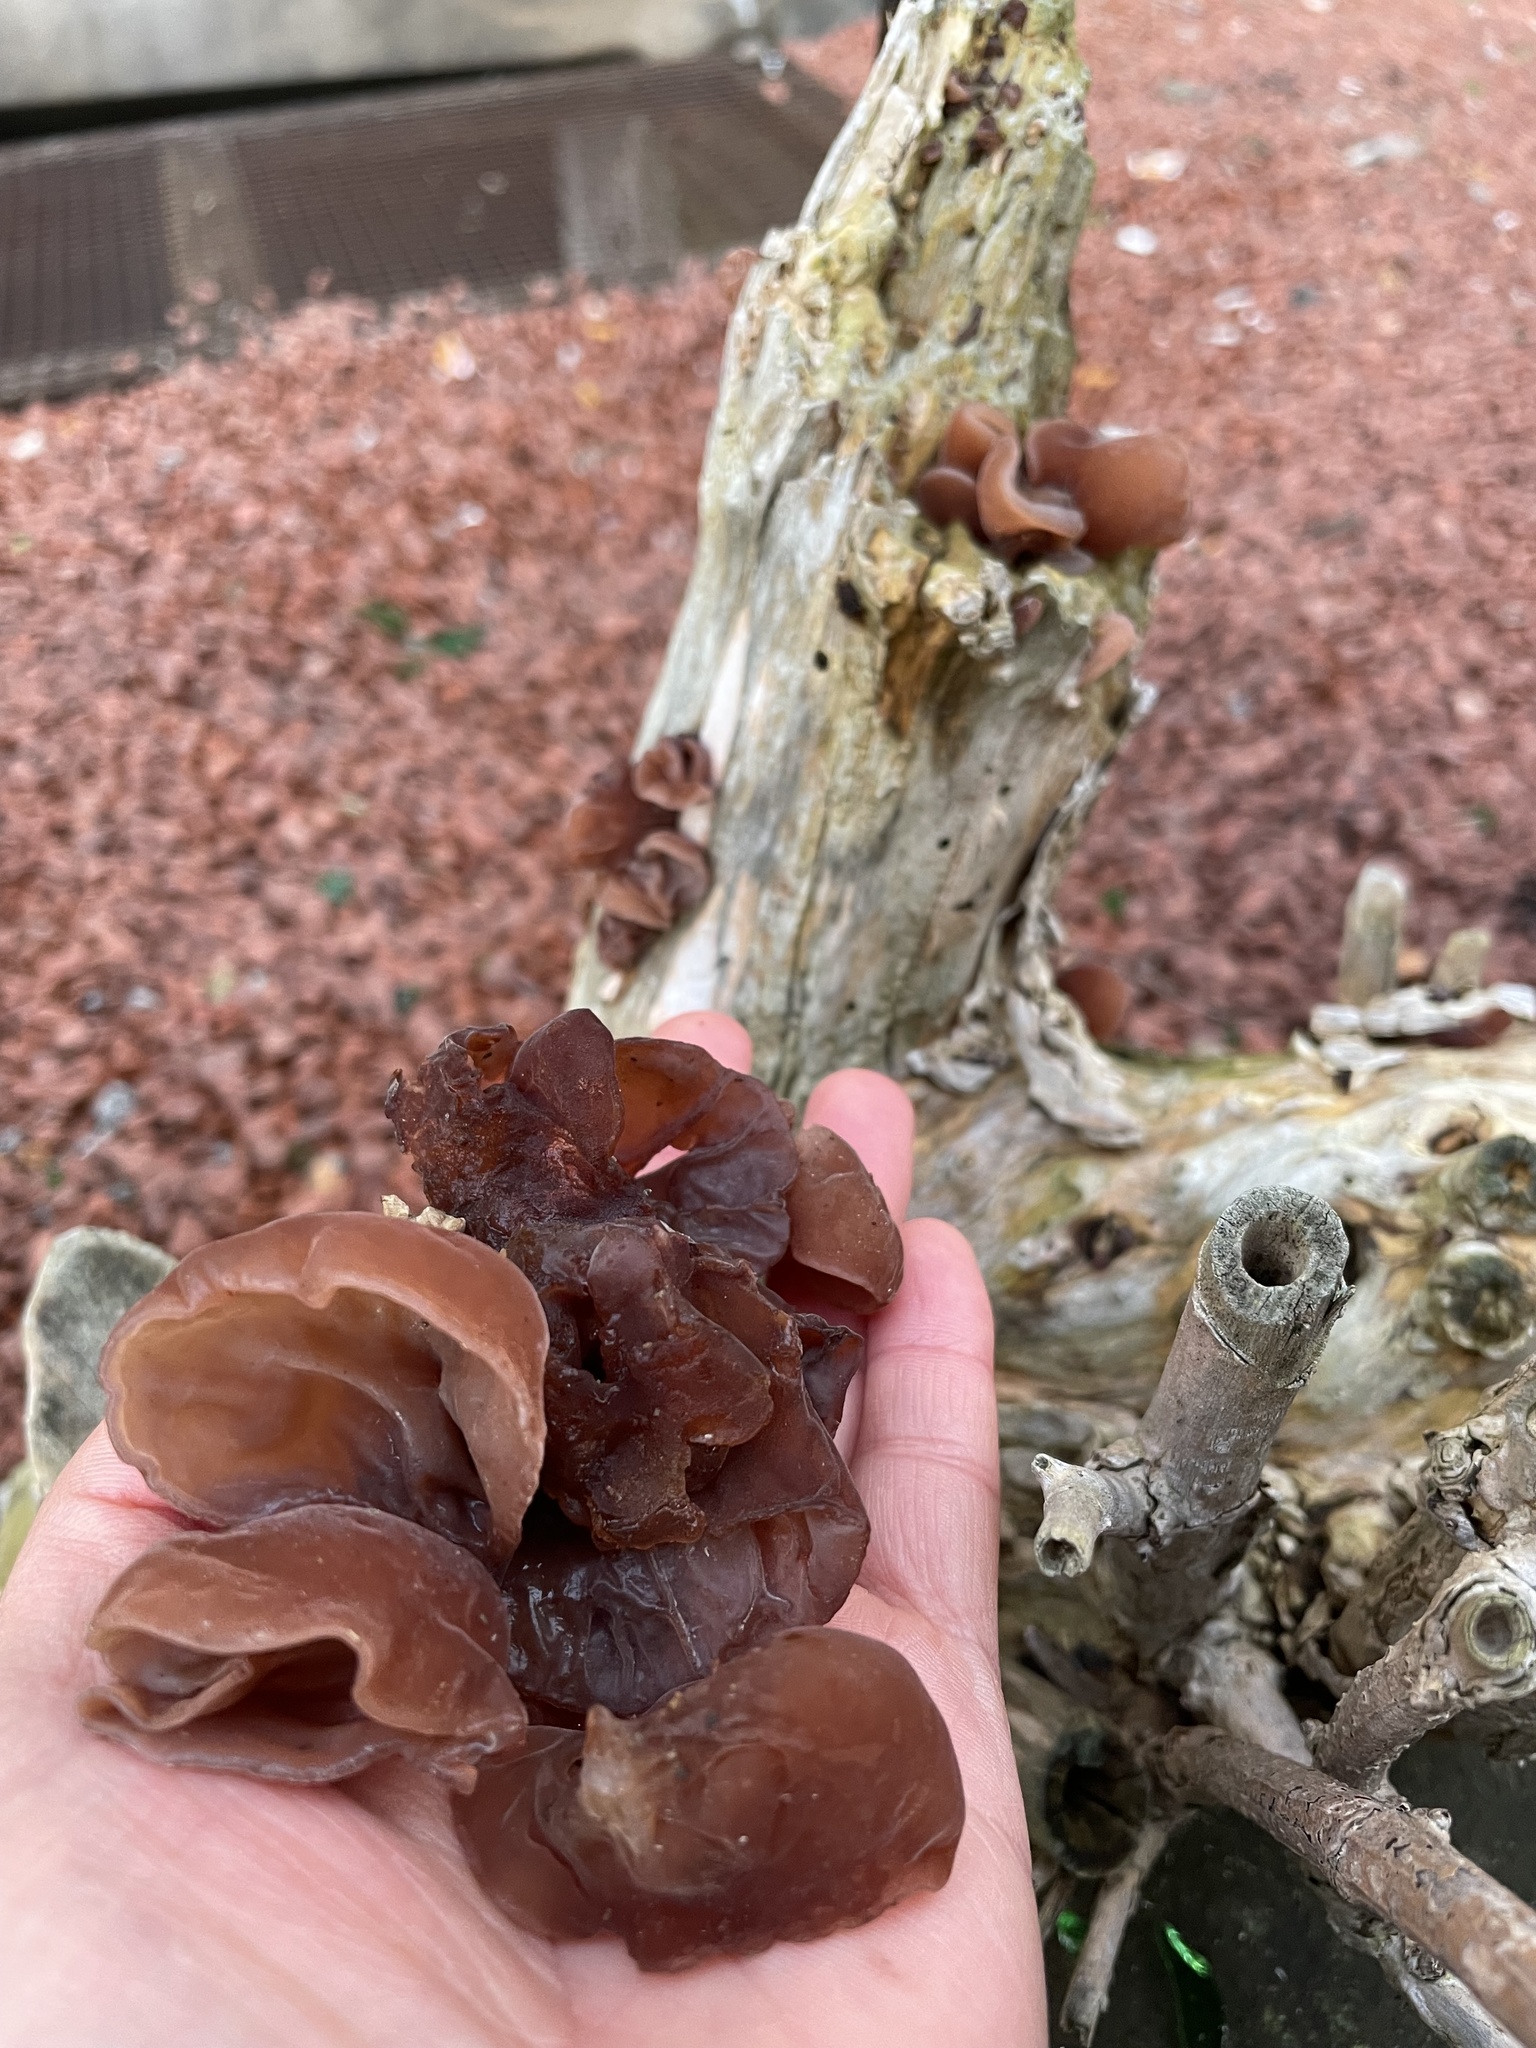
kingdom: Fungi
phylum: Basidiomycota
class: Agaricomycetes
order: Auriculariales
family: Auriculariaceae
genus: Auricularia
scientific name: Auricularia auricula-judae
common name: Jelly ear
